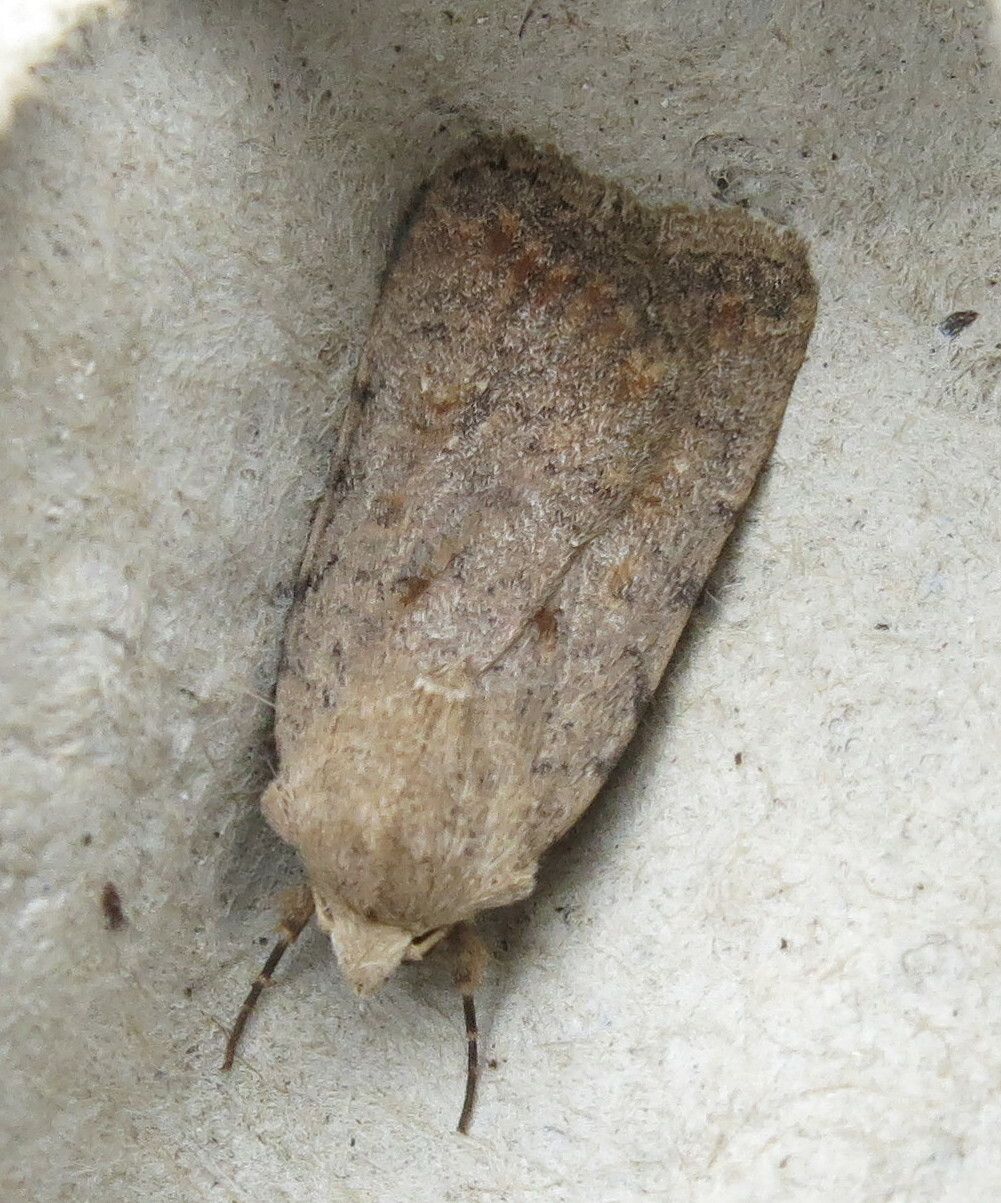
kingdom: Animalia
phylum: Arthropoda
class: Insecta
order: Lepidoptera
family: Noctuidae
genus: Caradrina
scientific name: Caradrina clavipalpis
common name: Pale mottled willow
